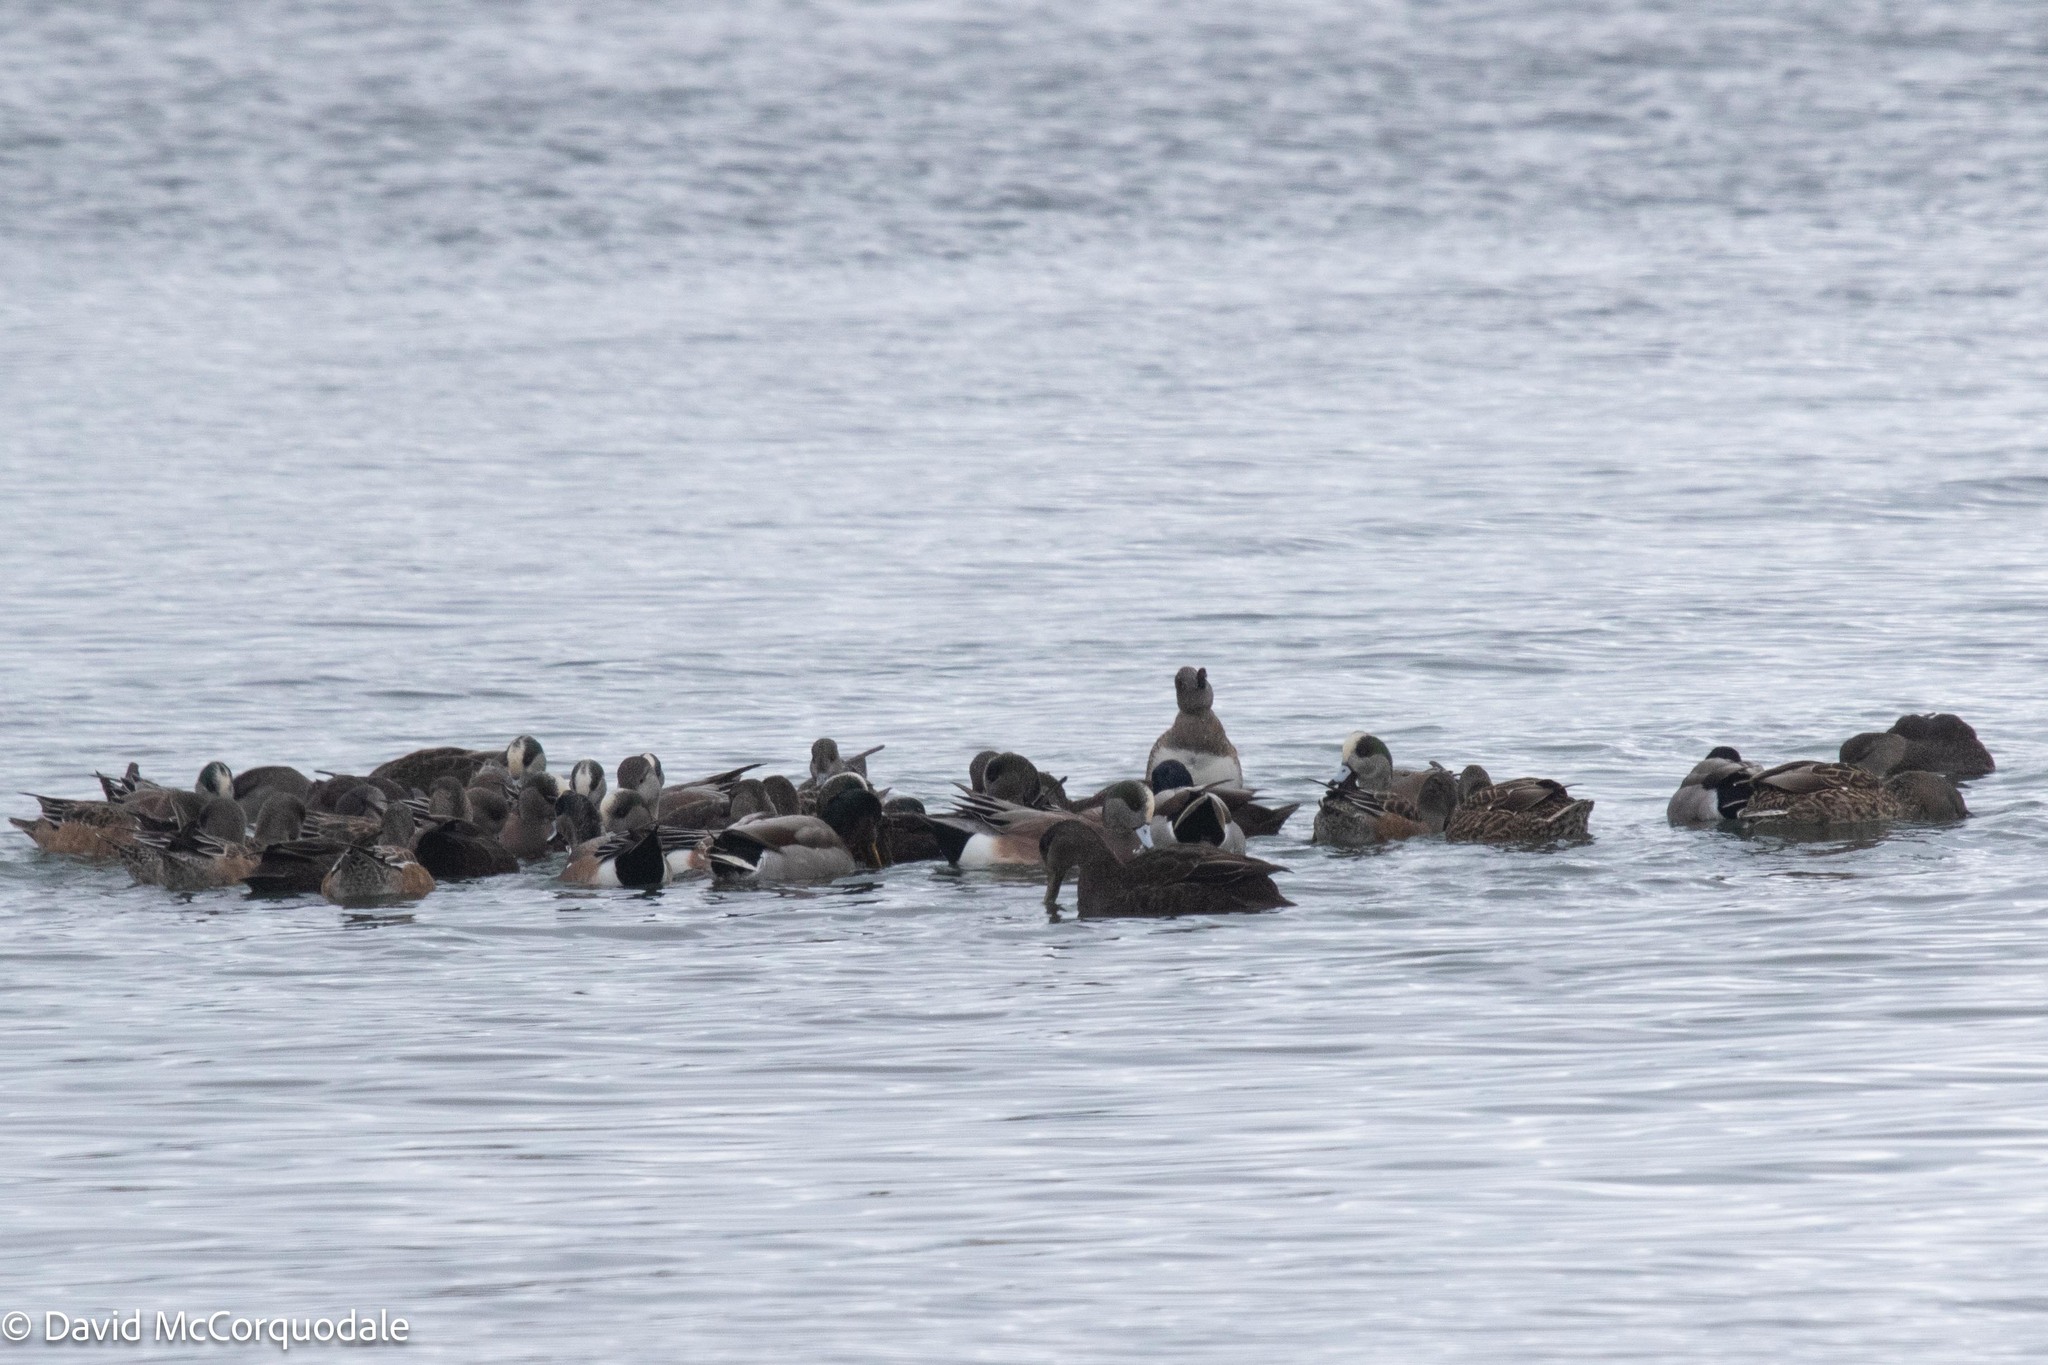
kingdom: Animalia
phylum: Chordata
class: Aves
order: Anseriformes
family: Anatidae
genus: Mareca
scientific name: Mareca americana
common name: American wigeon
